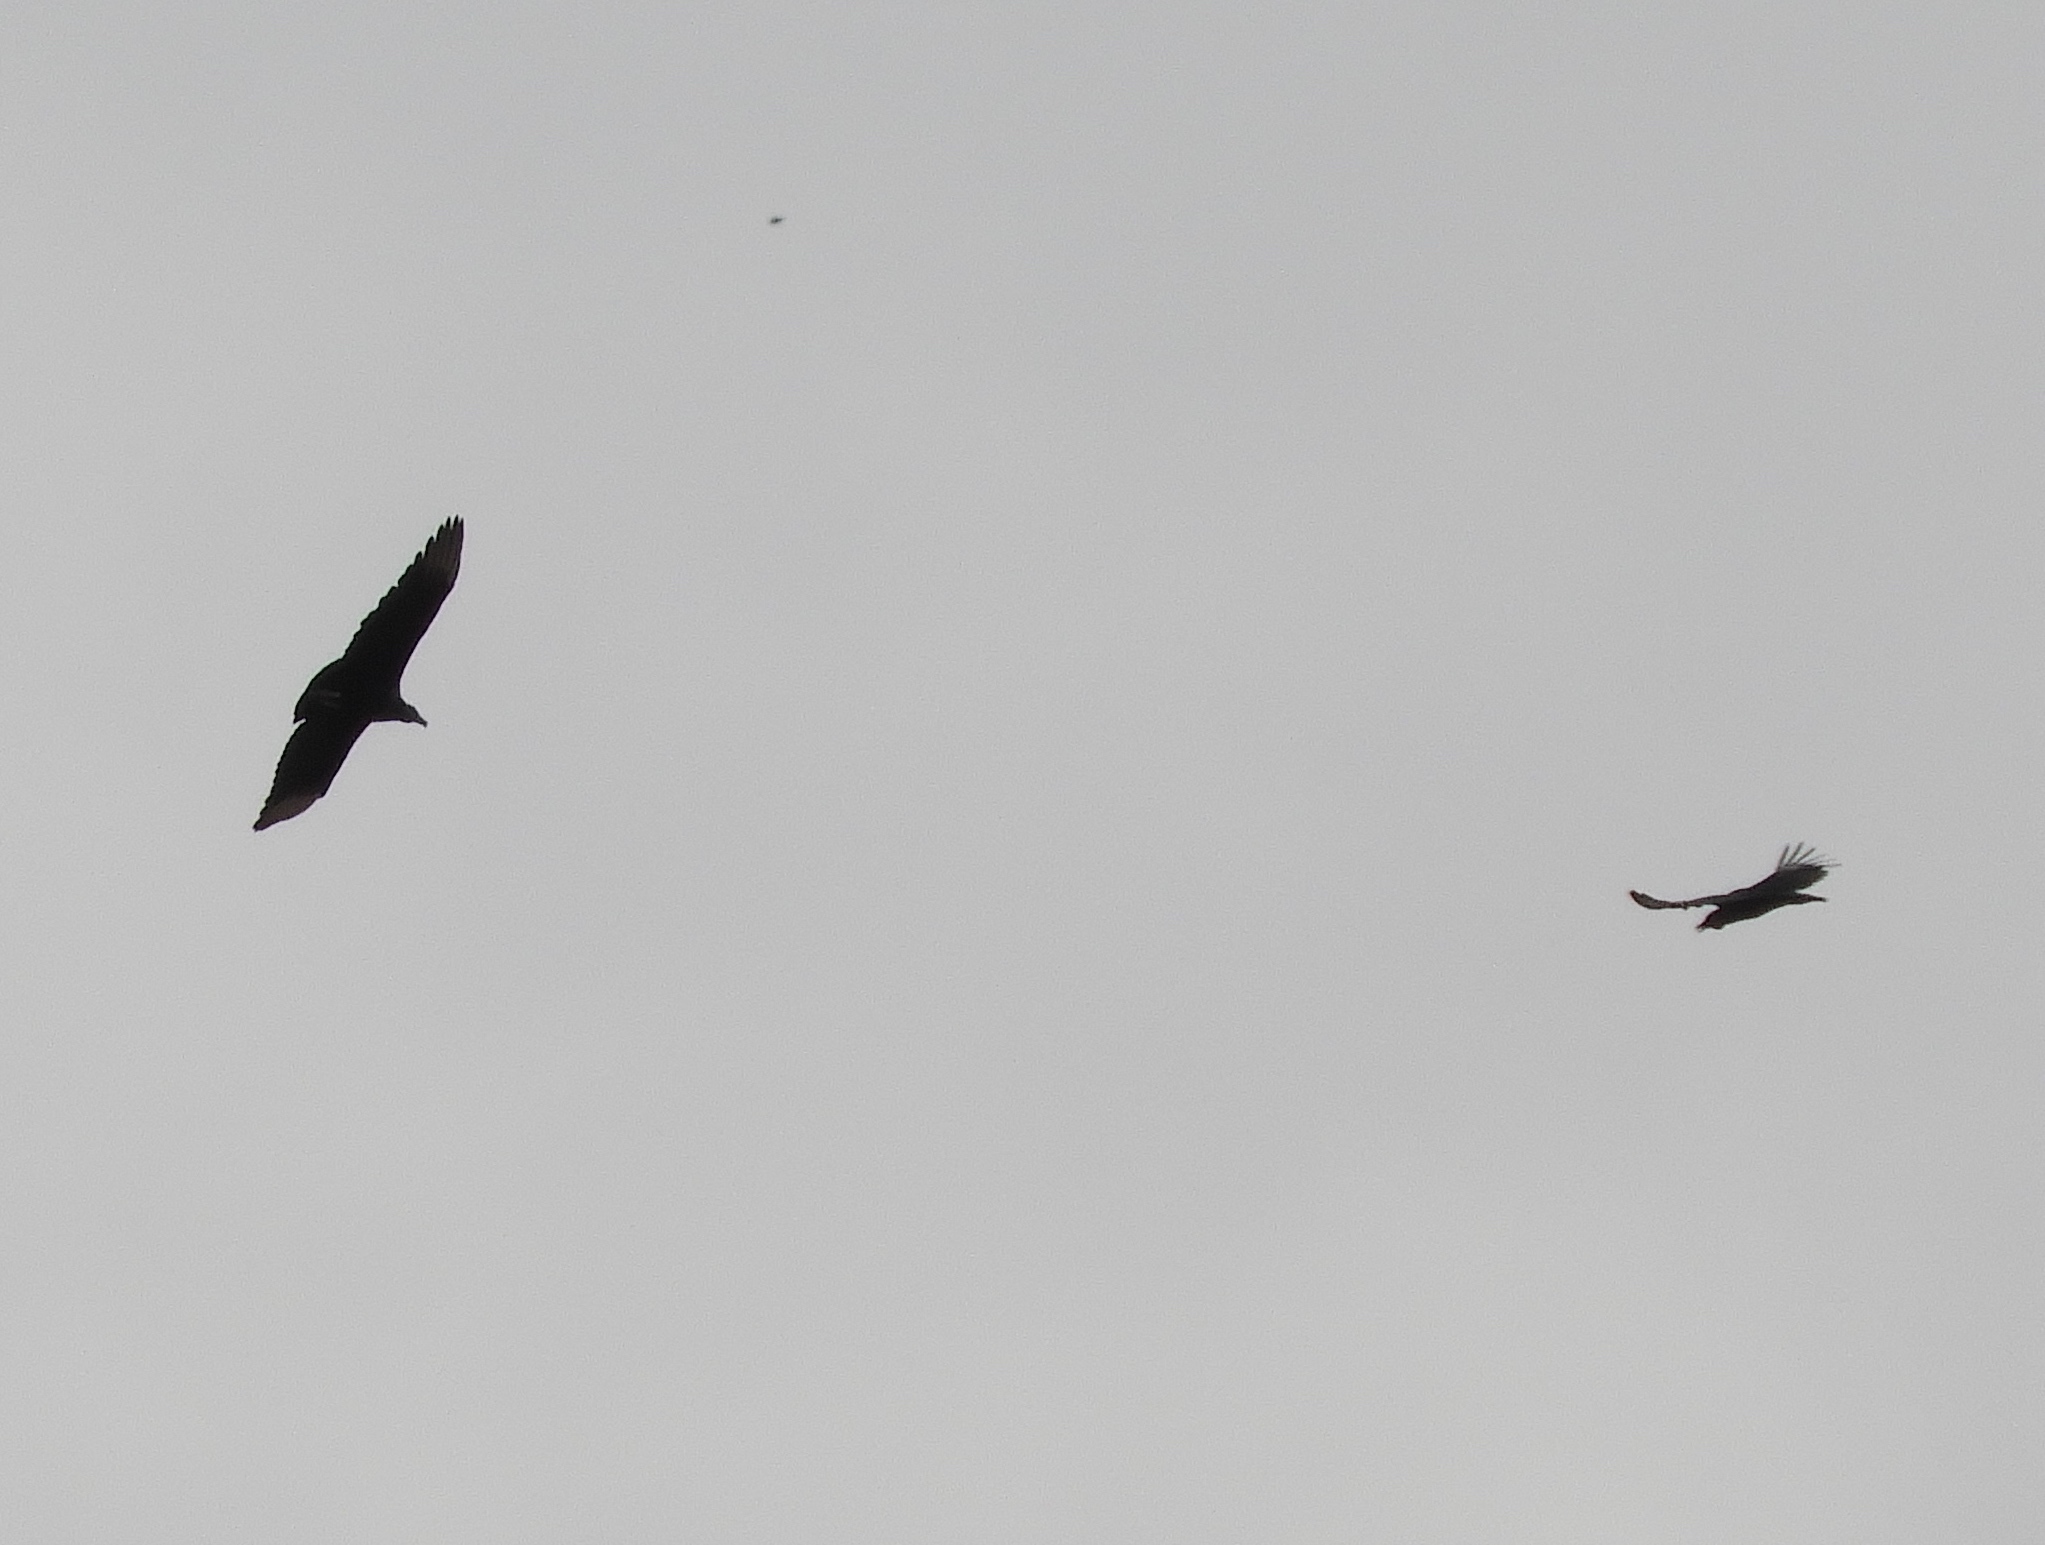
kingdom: Animalia
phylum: Chordata
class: Aves
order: Accipitriformes
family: Cathartidae
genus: Coragyps
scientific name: Coragyps atratus
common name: Black vulture
